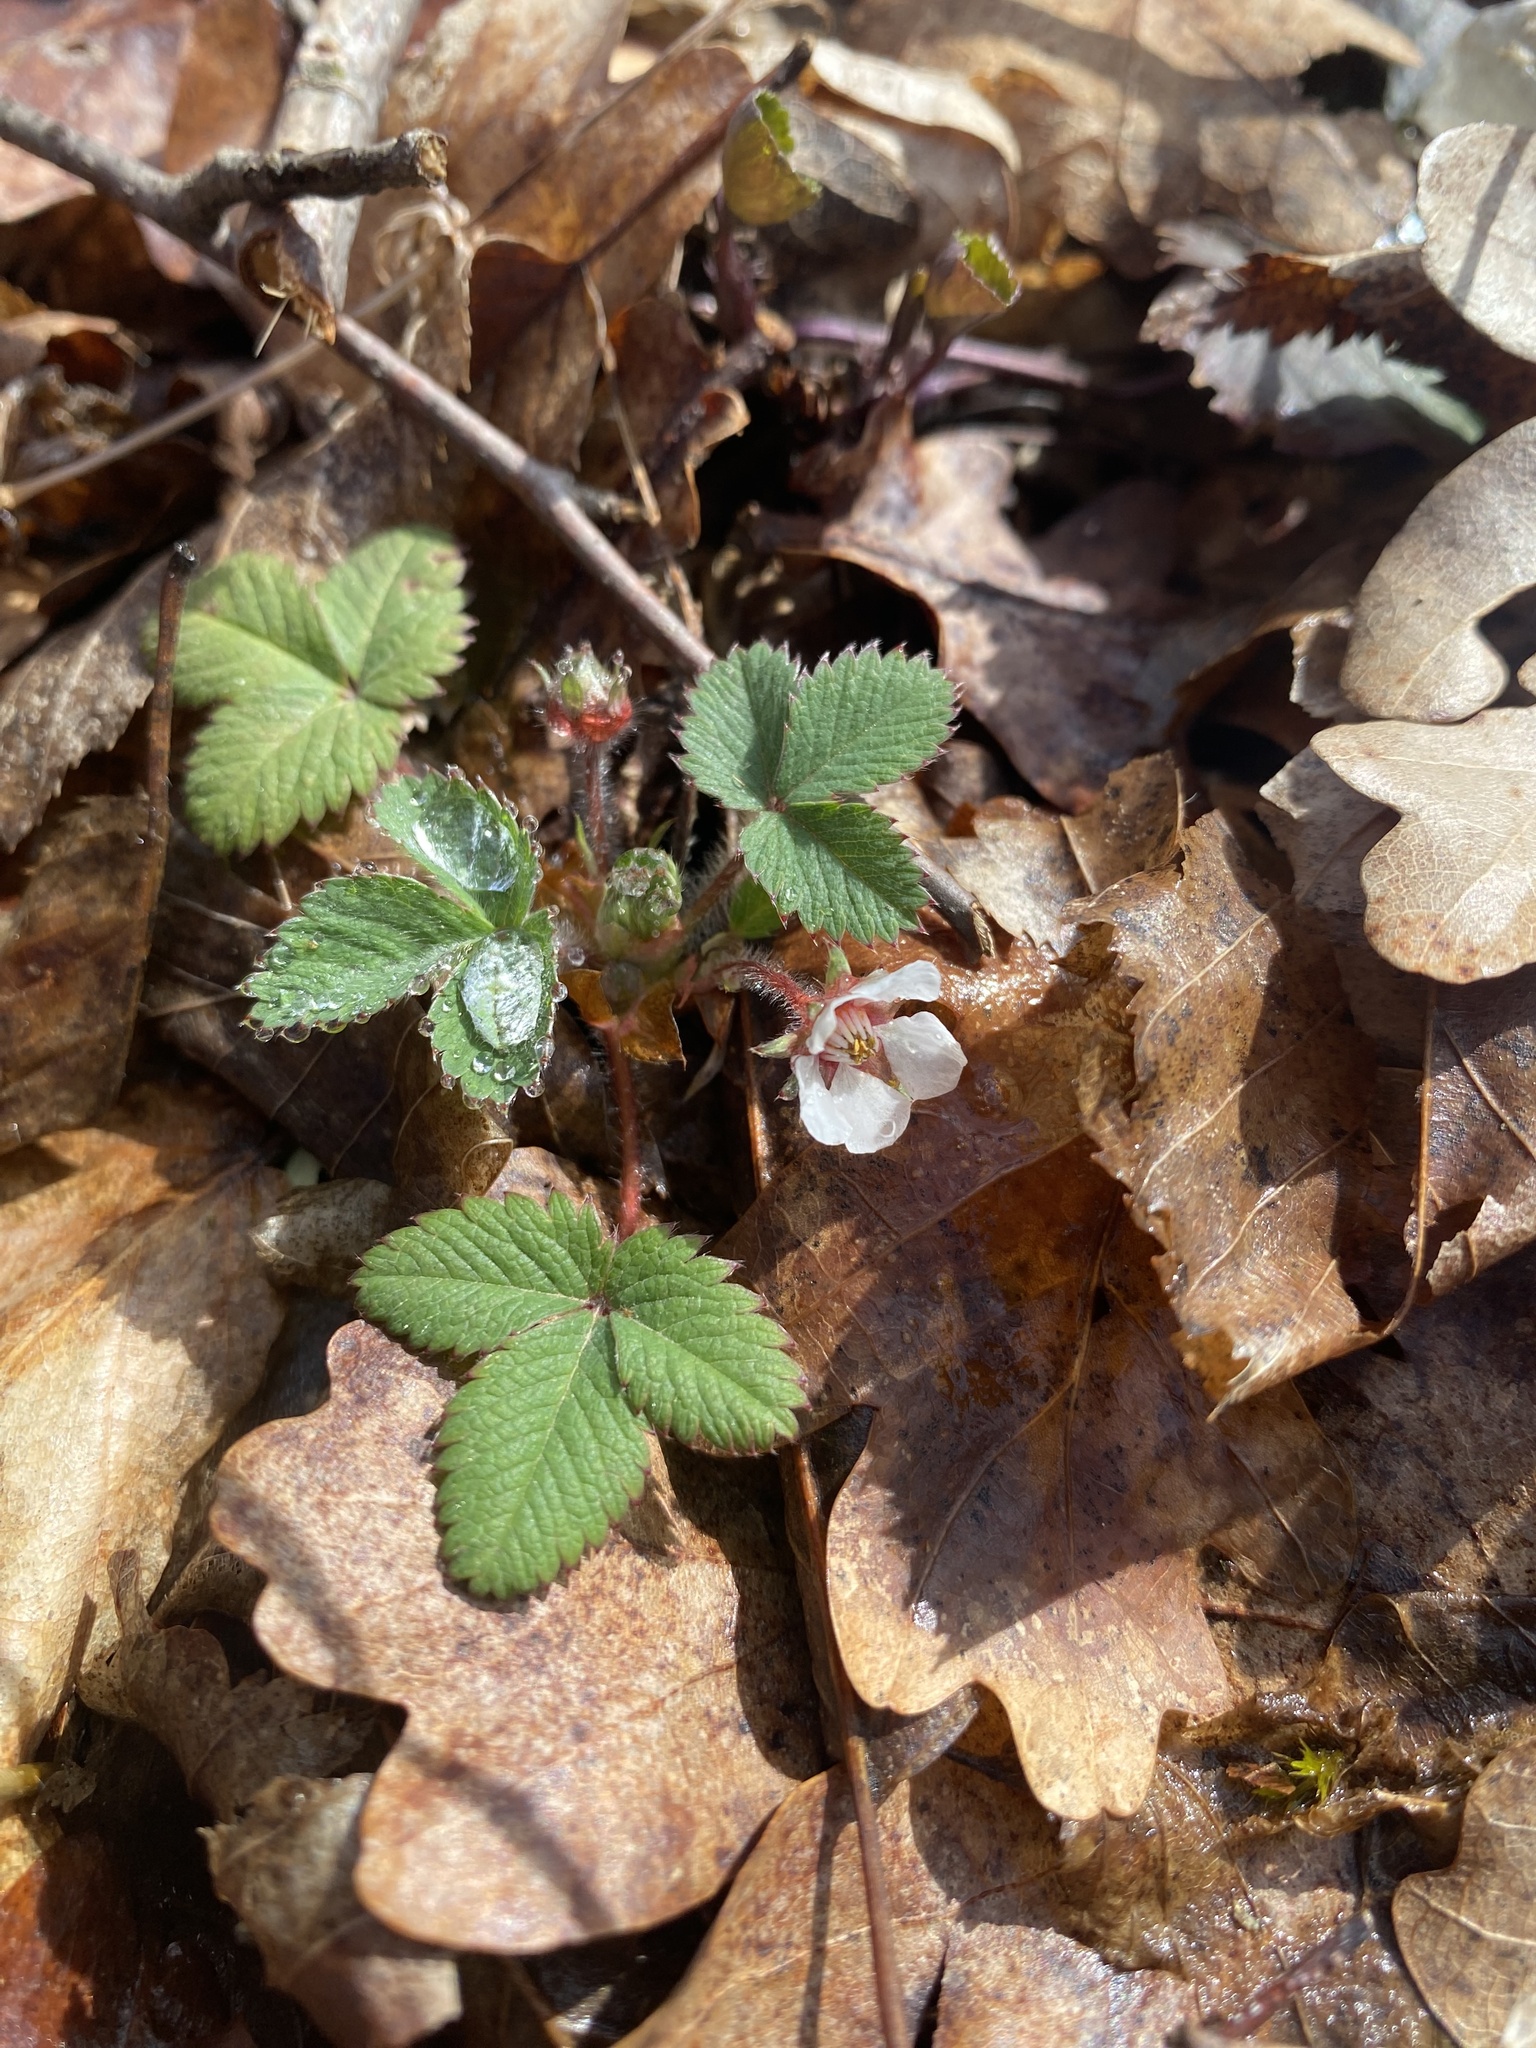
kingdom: Plantae
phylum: Tracheophyta
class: Magnoliopsida
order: Rosales
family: Rosaceae
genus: Potentilla
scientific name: Potentilla micrantha
